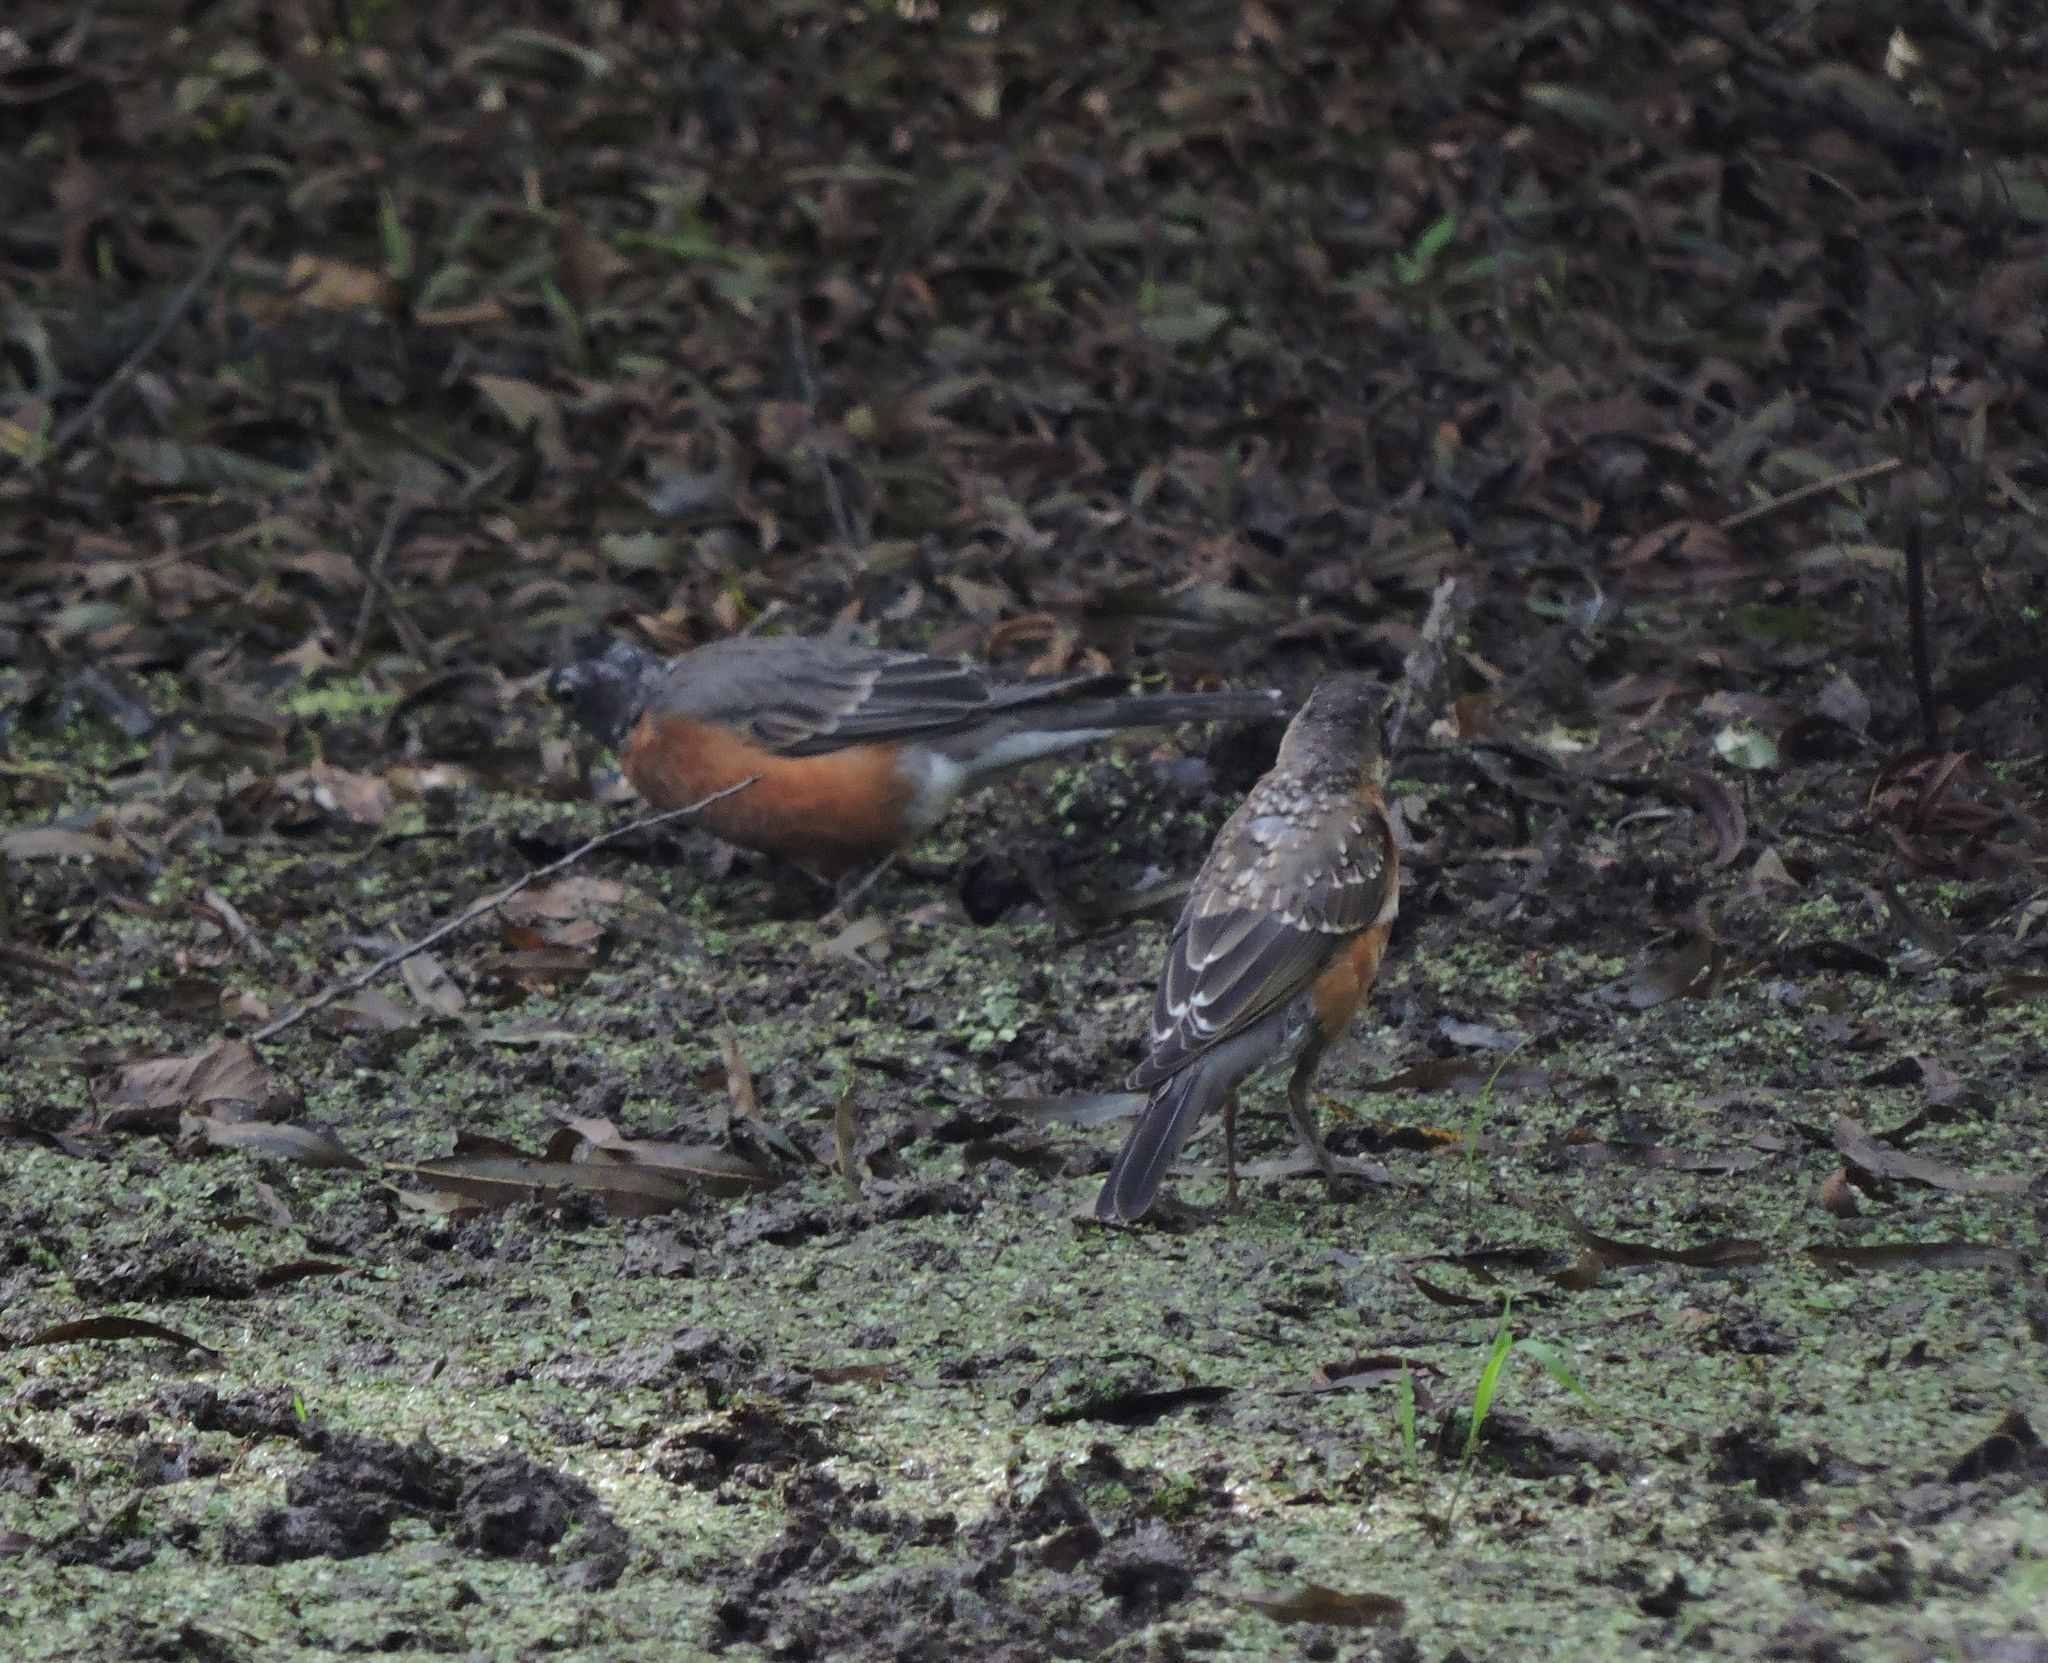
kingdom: Animalia
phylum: Chordata
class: Aves
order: Passeriformes
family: Turdidae
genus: Turdus
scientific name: Turdus migratorius
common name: American robin
